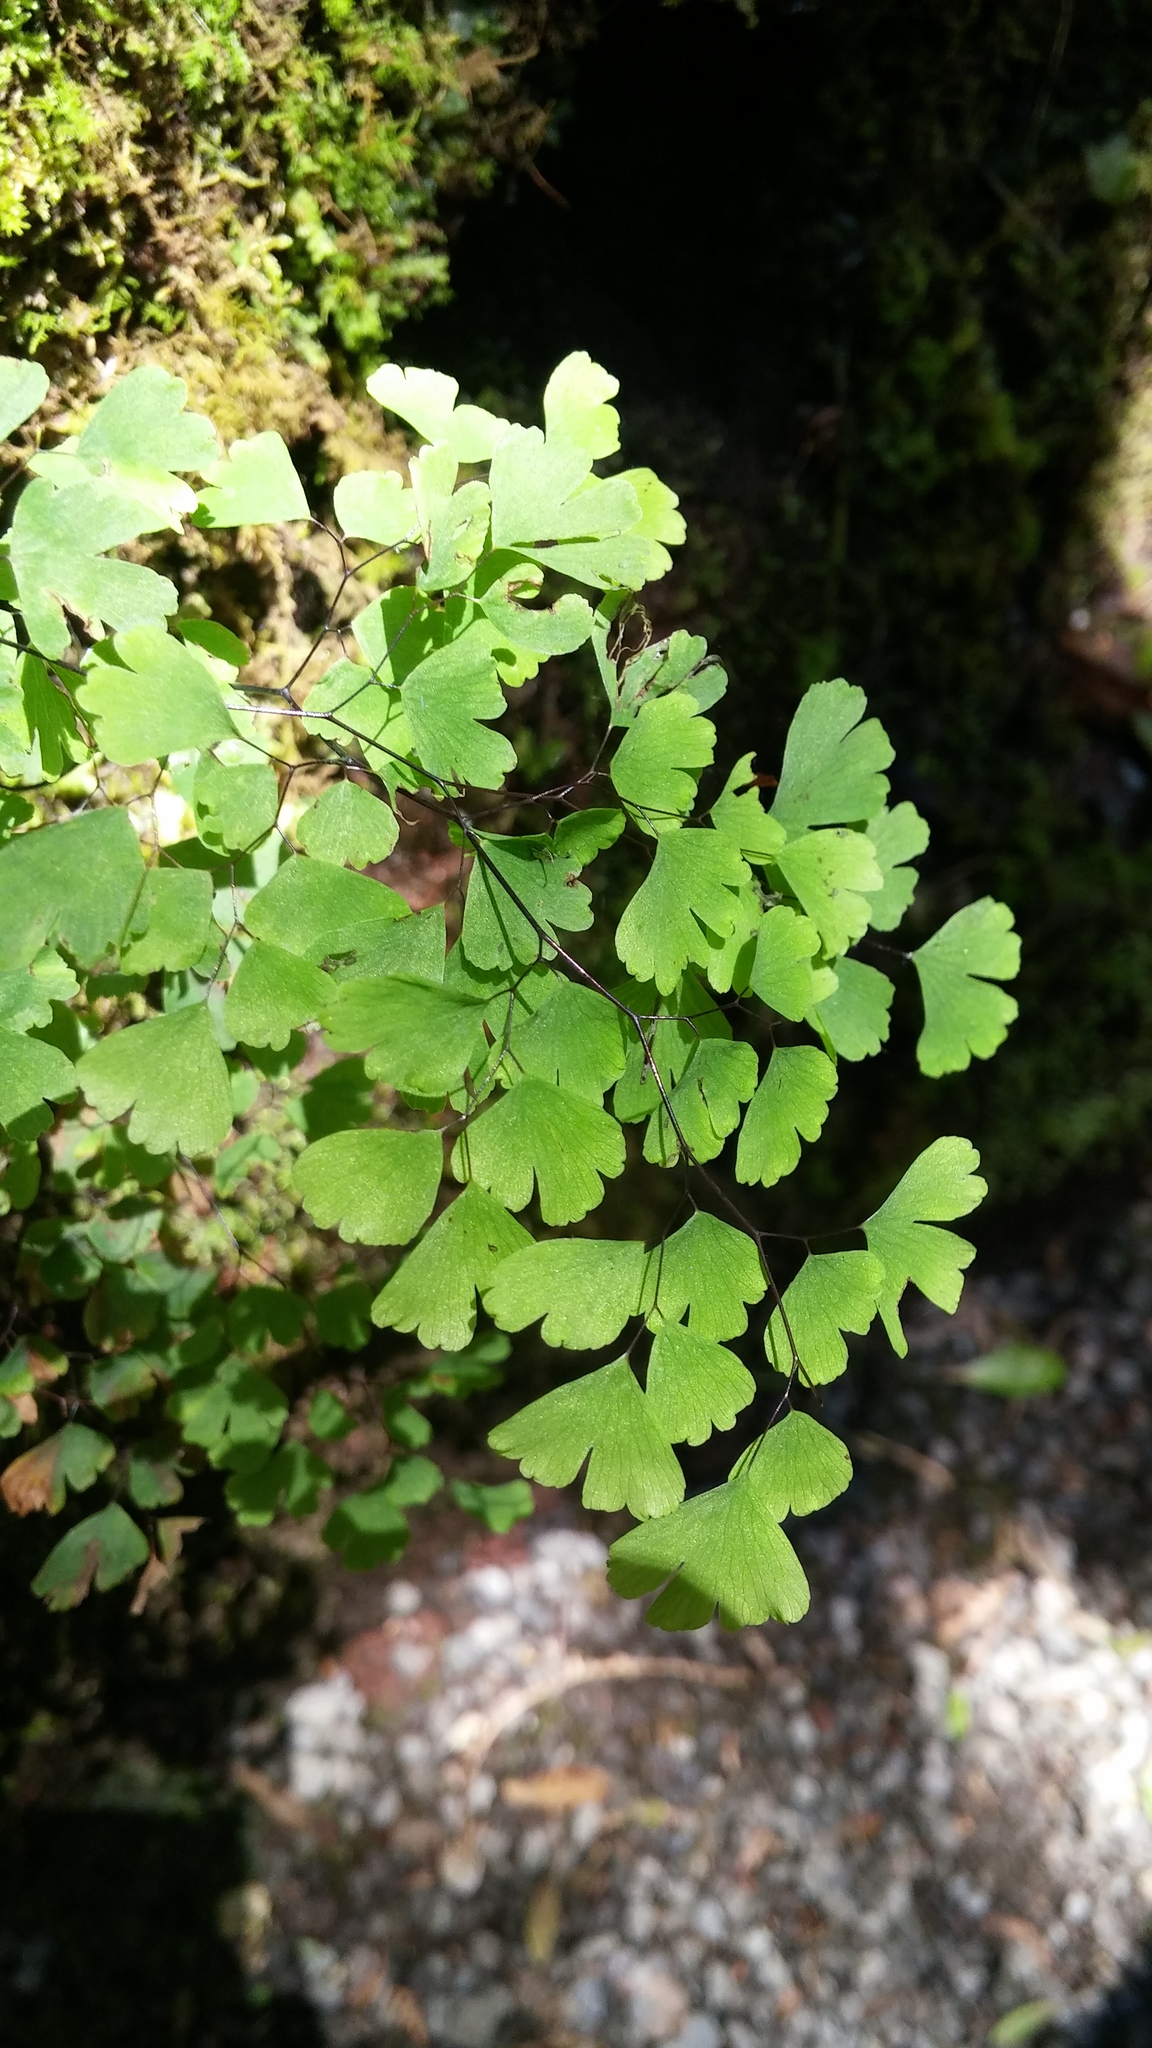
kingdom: Plantae
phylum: Tracheophyta
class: Polypodiopsida
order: Polypodiales
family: Pteridaceae
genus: Adiantum
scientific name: Adiantum raddianum
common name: Delta maidenhair fern
